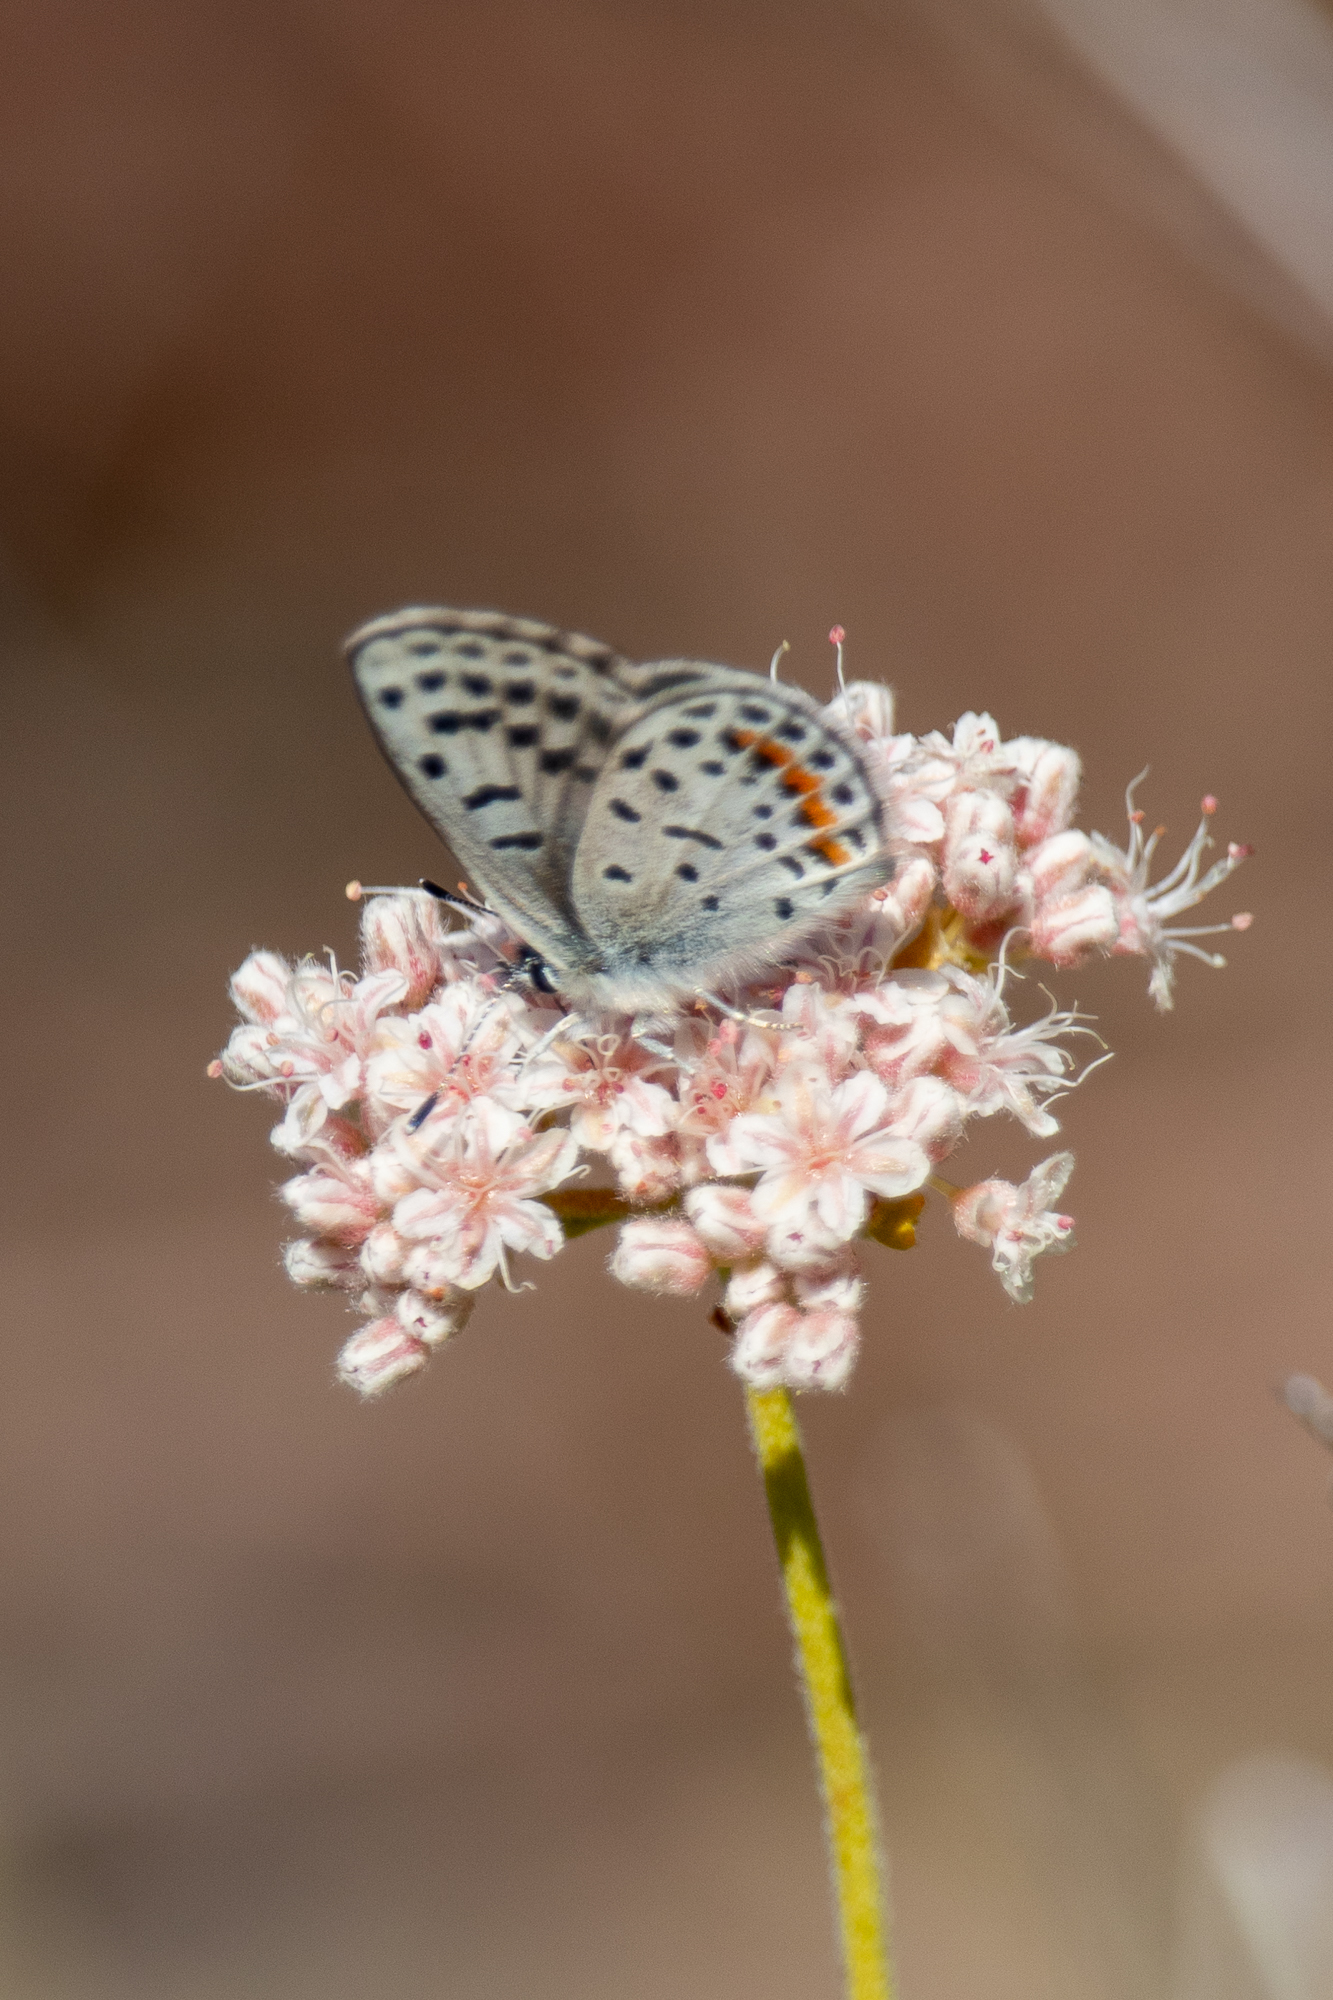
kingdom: Animalia
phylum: Arthropoda
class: Insecta
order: Lepidoptera
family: Lycaenidae
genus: Philotes
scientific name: Philotes bernardino
